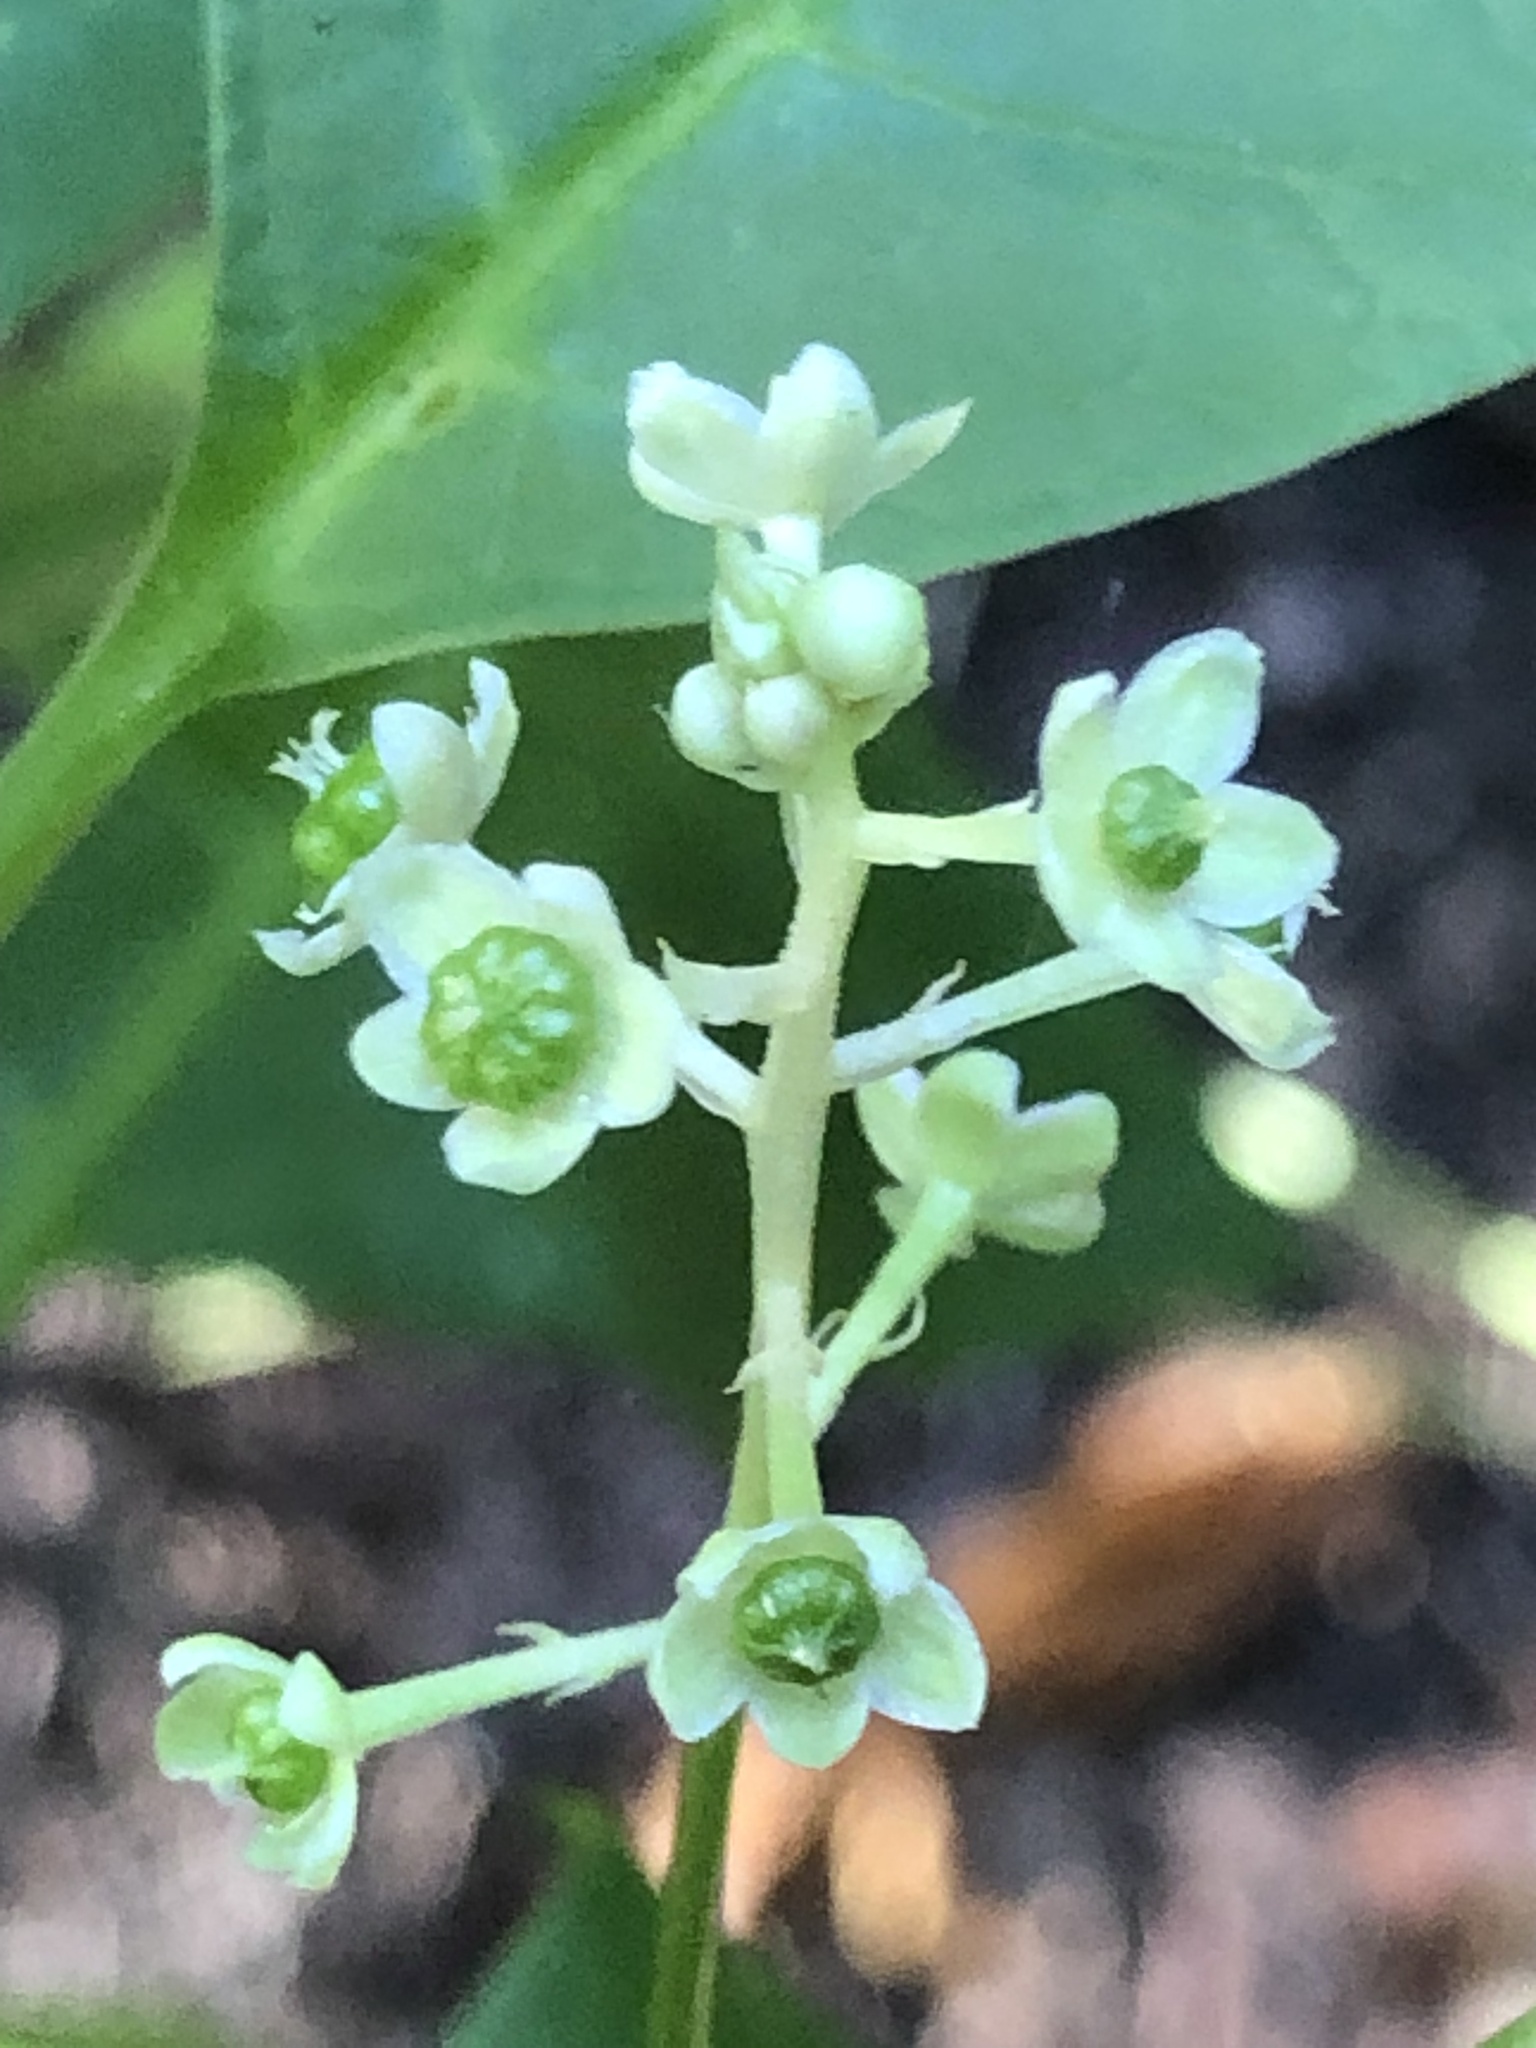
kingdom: Plantae
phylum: Tracheophyta
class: Magnoliopsida
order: Caryophyllales
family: Phytolaccaceae
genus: Phytolacca
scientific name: Phytolacca americana
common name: American pokeweed
